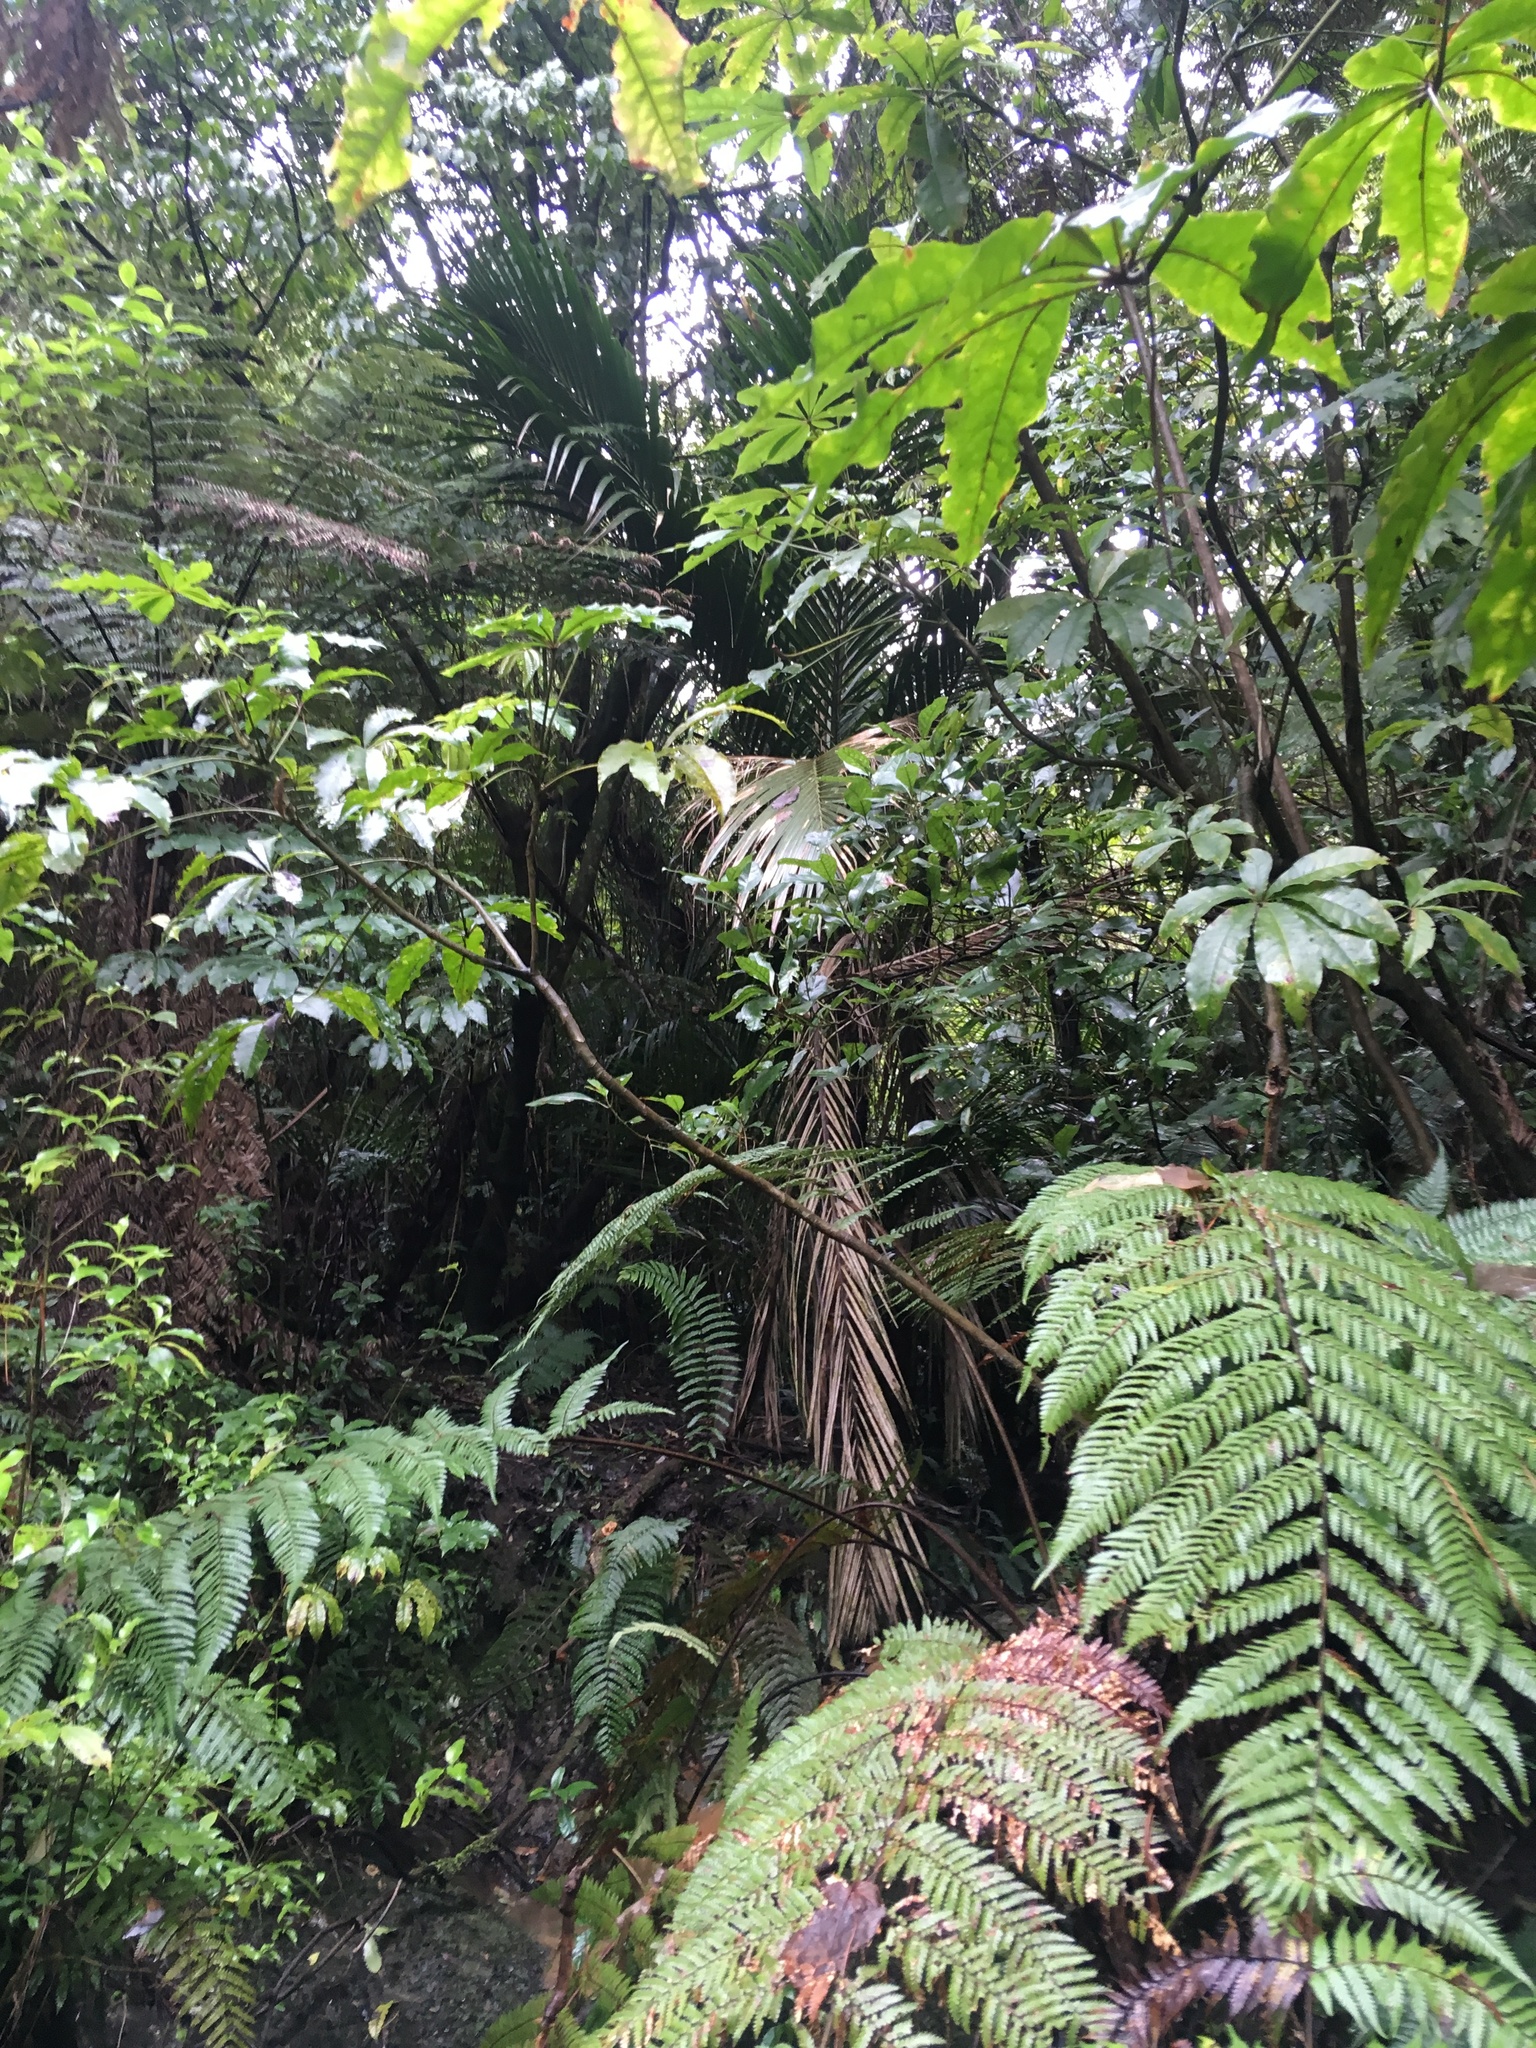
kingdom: Plantae
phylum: Tracheophyta
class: Magnoliopsida
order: Apiales
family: Araliaceae
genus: Schefflera
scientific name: Schefflera digitata
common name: Pate
